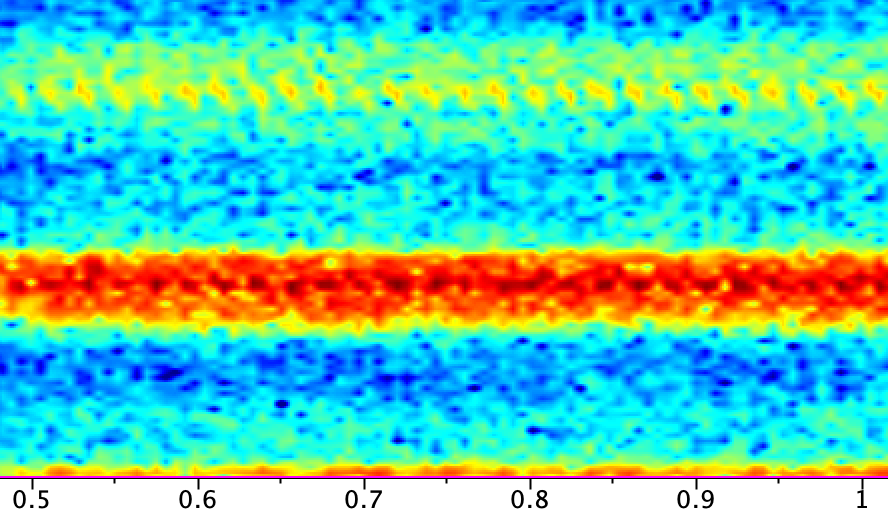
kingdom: Animalia
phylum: Arthropoda
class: Insecta
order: Orthoptera
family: Gryllidae
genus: Oecanthus
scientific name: Oecanthus californicus
